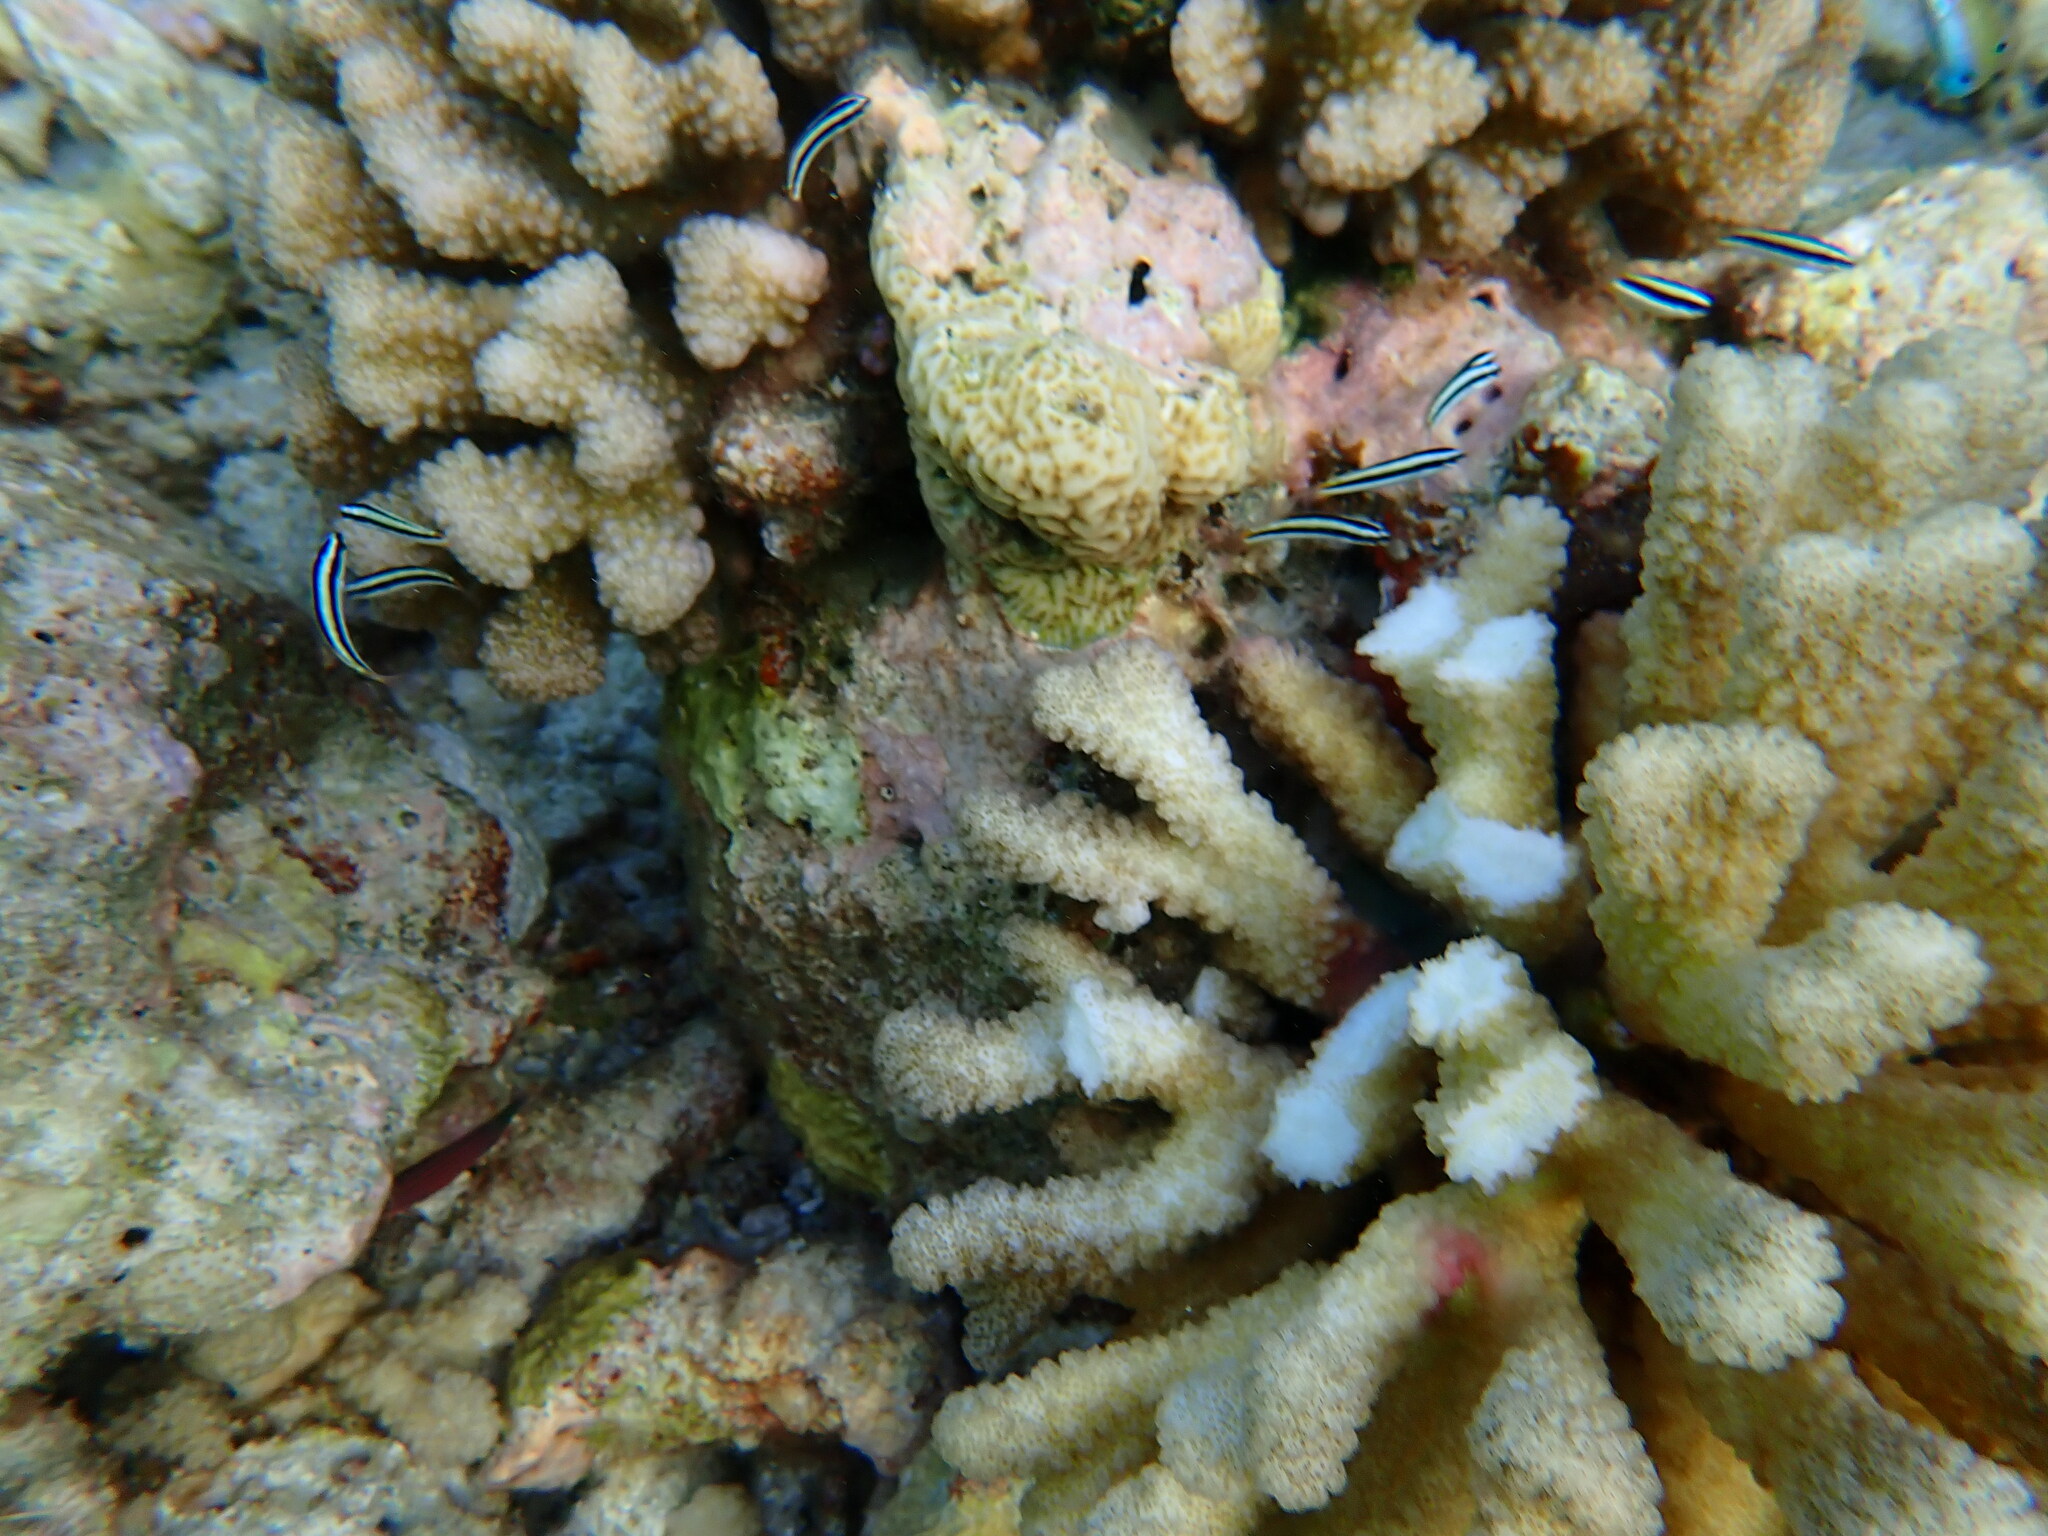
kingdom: Animalia
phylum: Chordata
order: Perciformes
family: Labridae
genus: Thalassoma
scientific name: Thalassoma amblycephalum
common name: Bluehead wrasse
